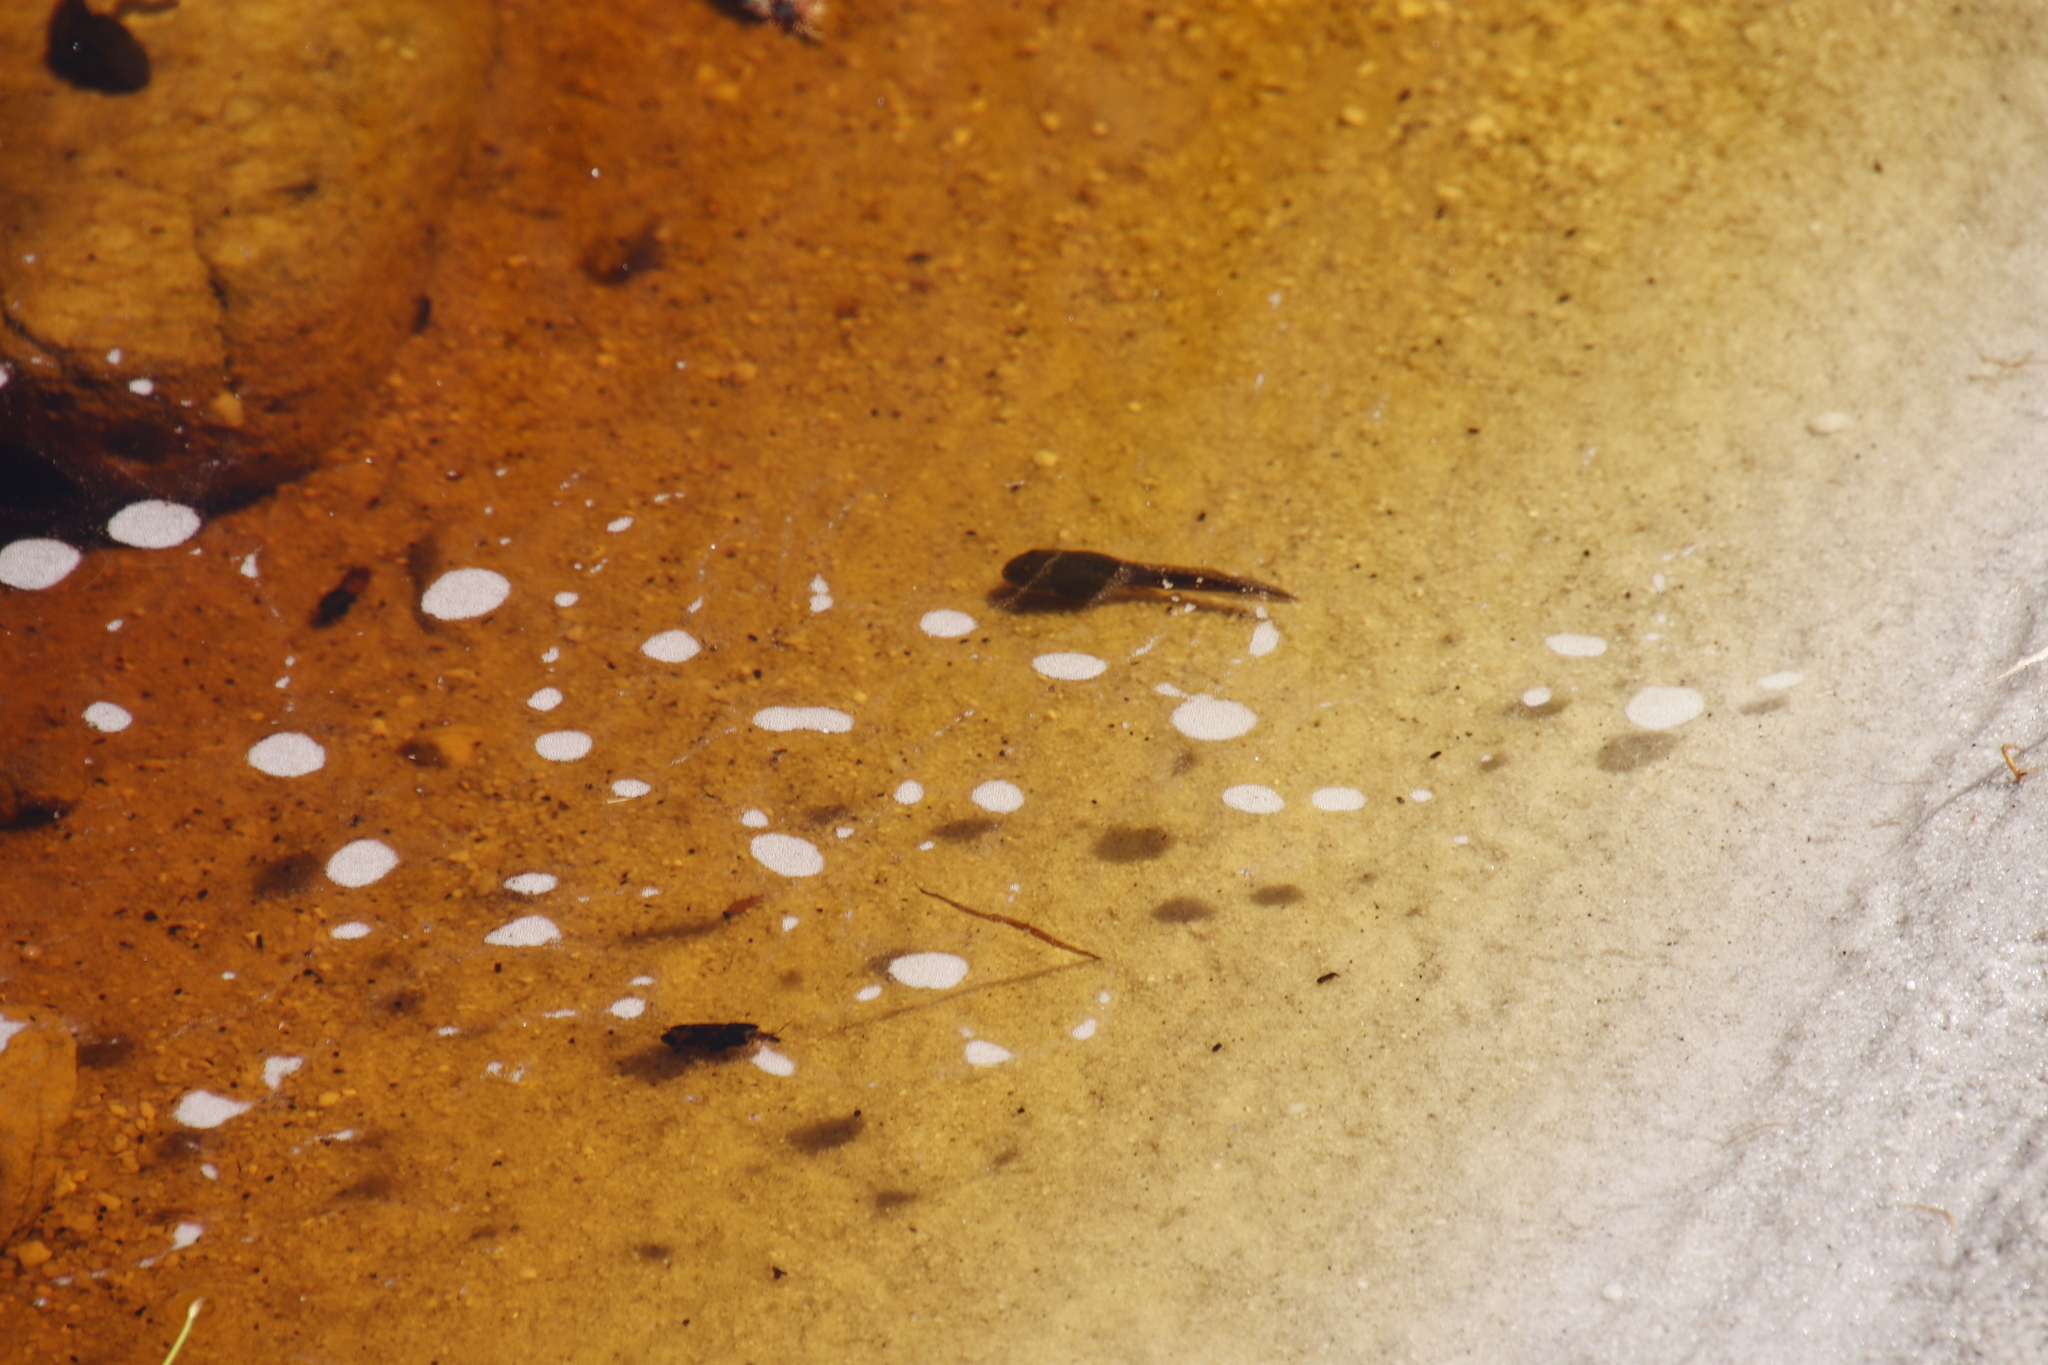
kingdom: Animalia
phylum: Chordata
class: Amphibia
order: Anura
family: Pyxicephalidae
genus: Amietia
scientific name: Amietia fuscigula
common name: Cape rana
